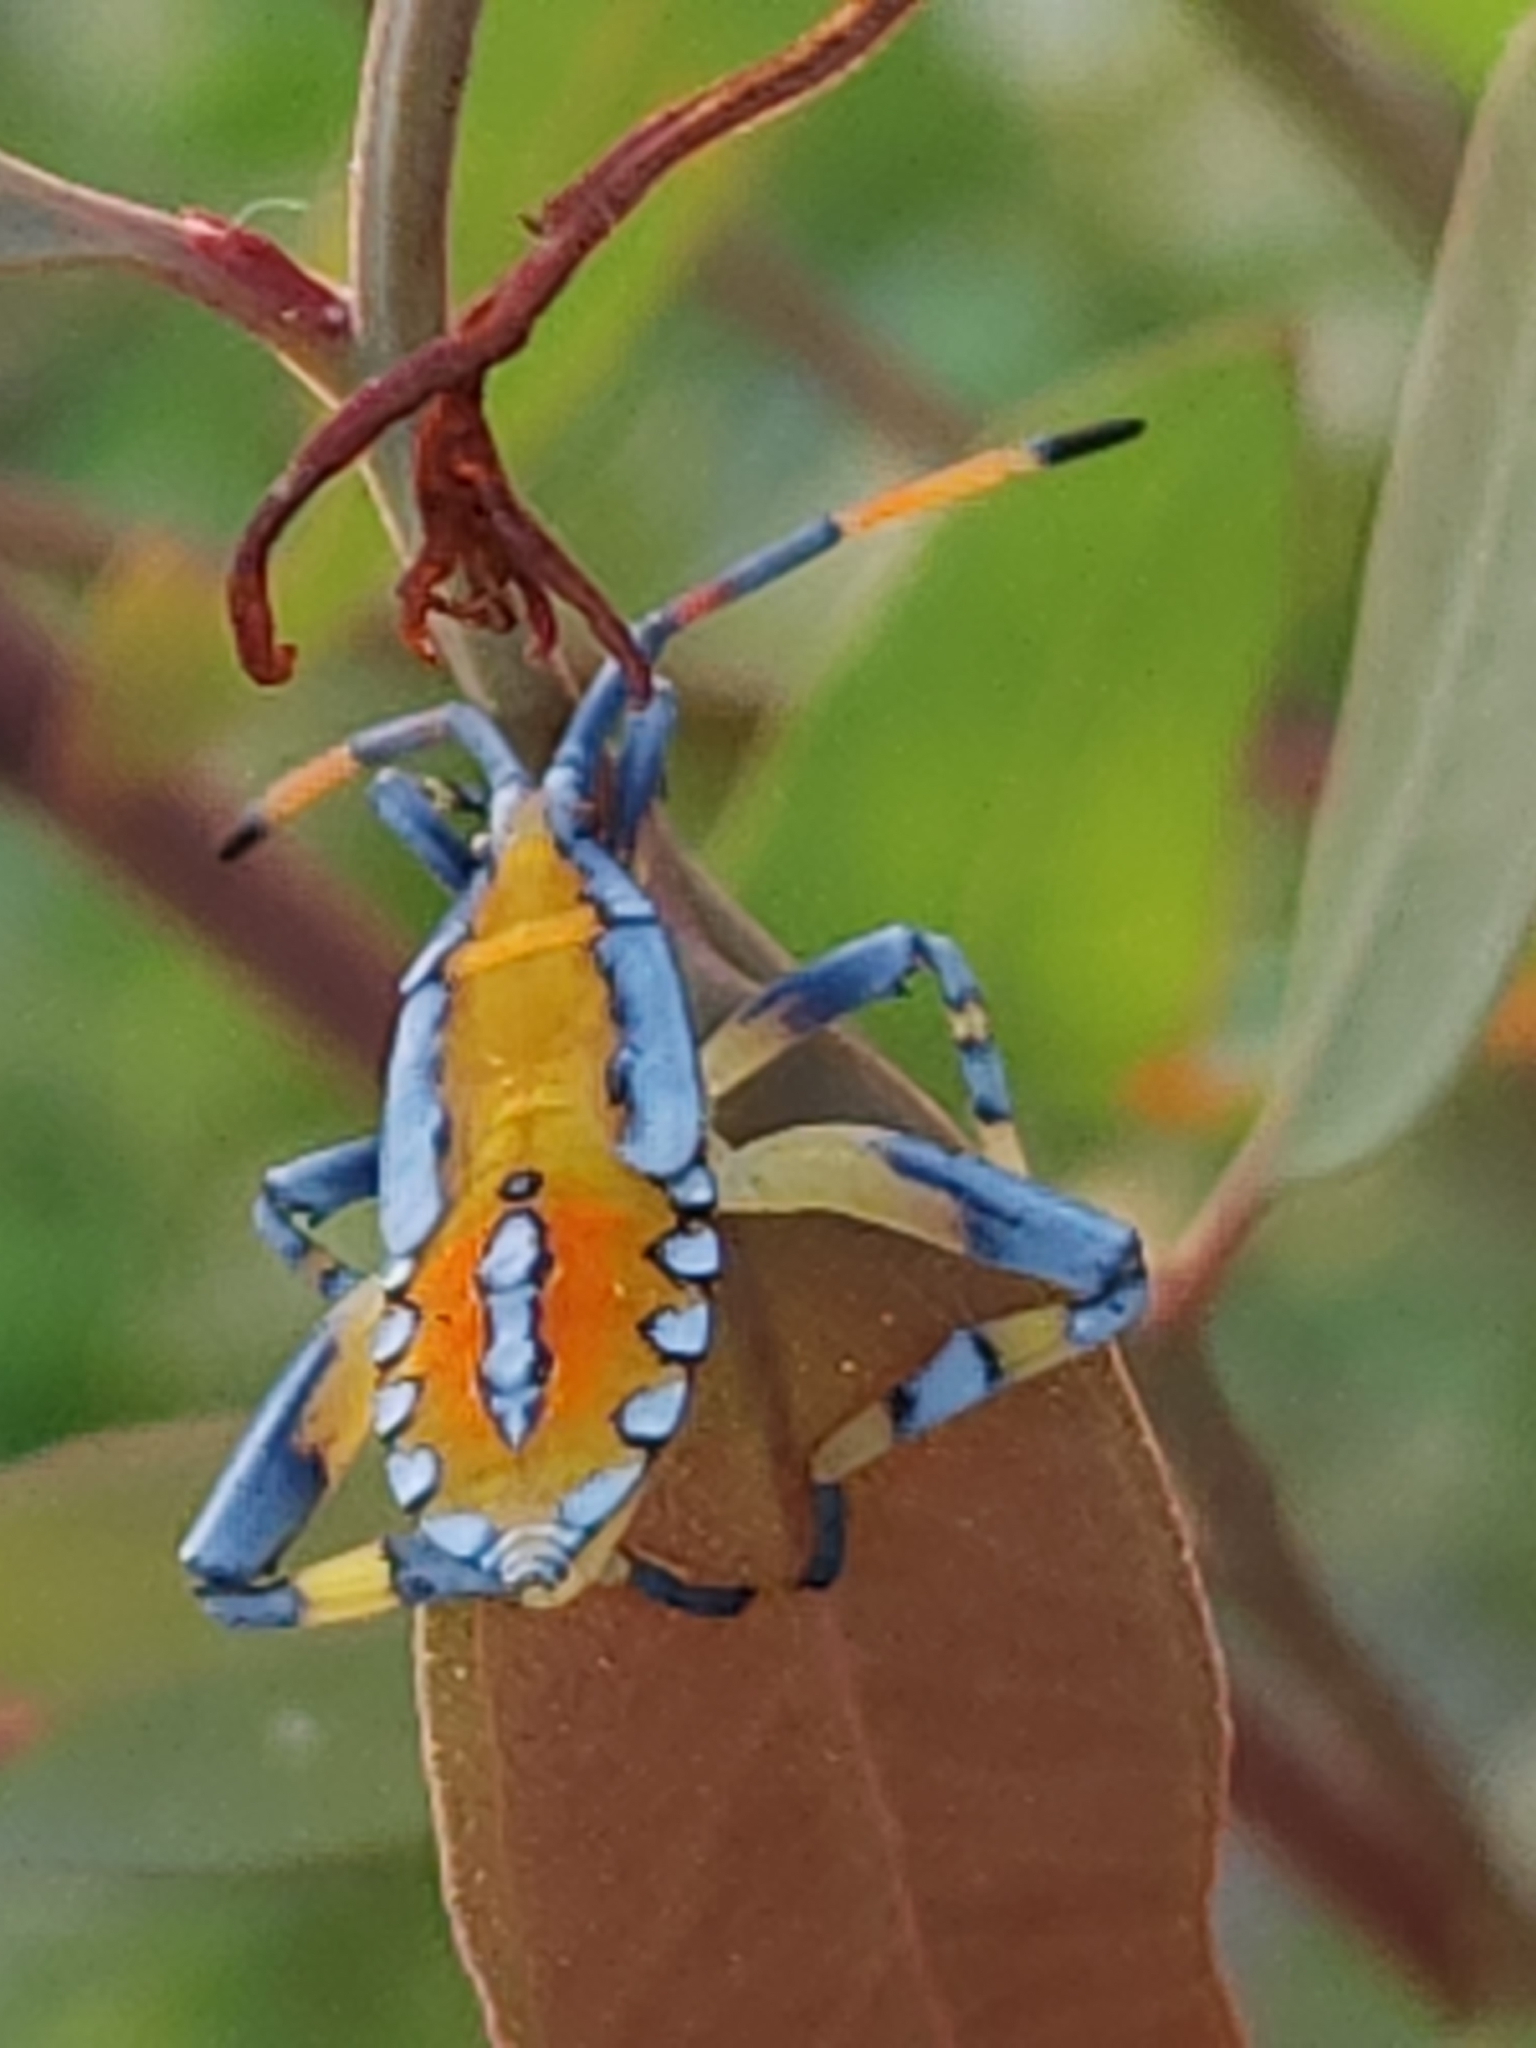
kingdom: Animalia
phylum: Arthropoda
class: Insecta
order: Hemiptera
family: Coreidae
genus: Amorbus
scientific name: Amorbus alternatus
